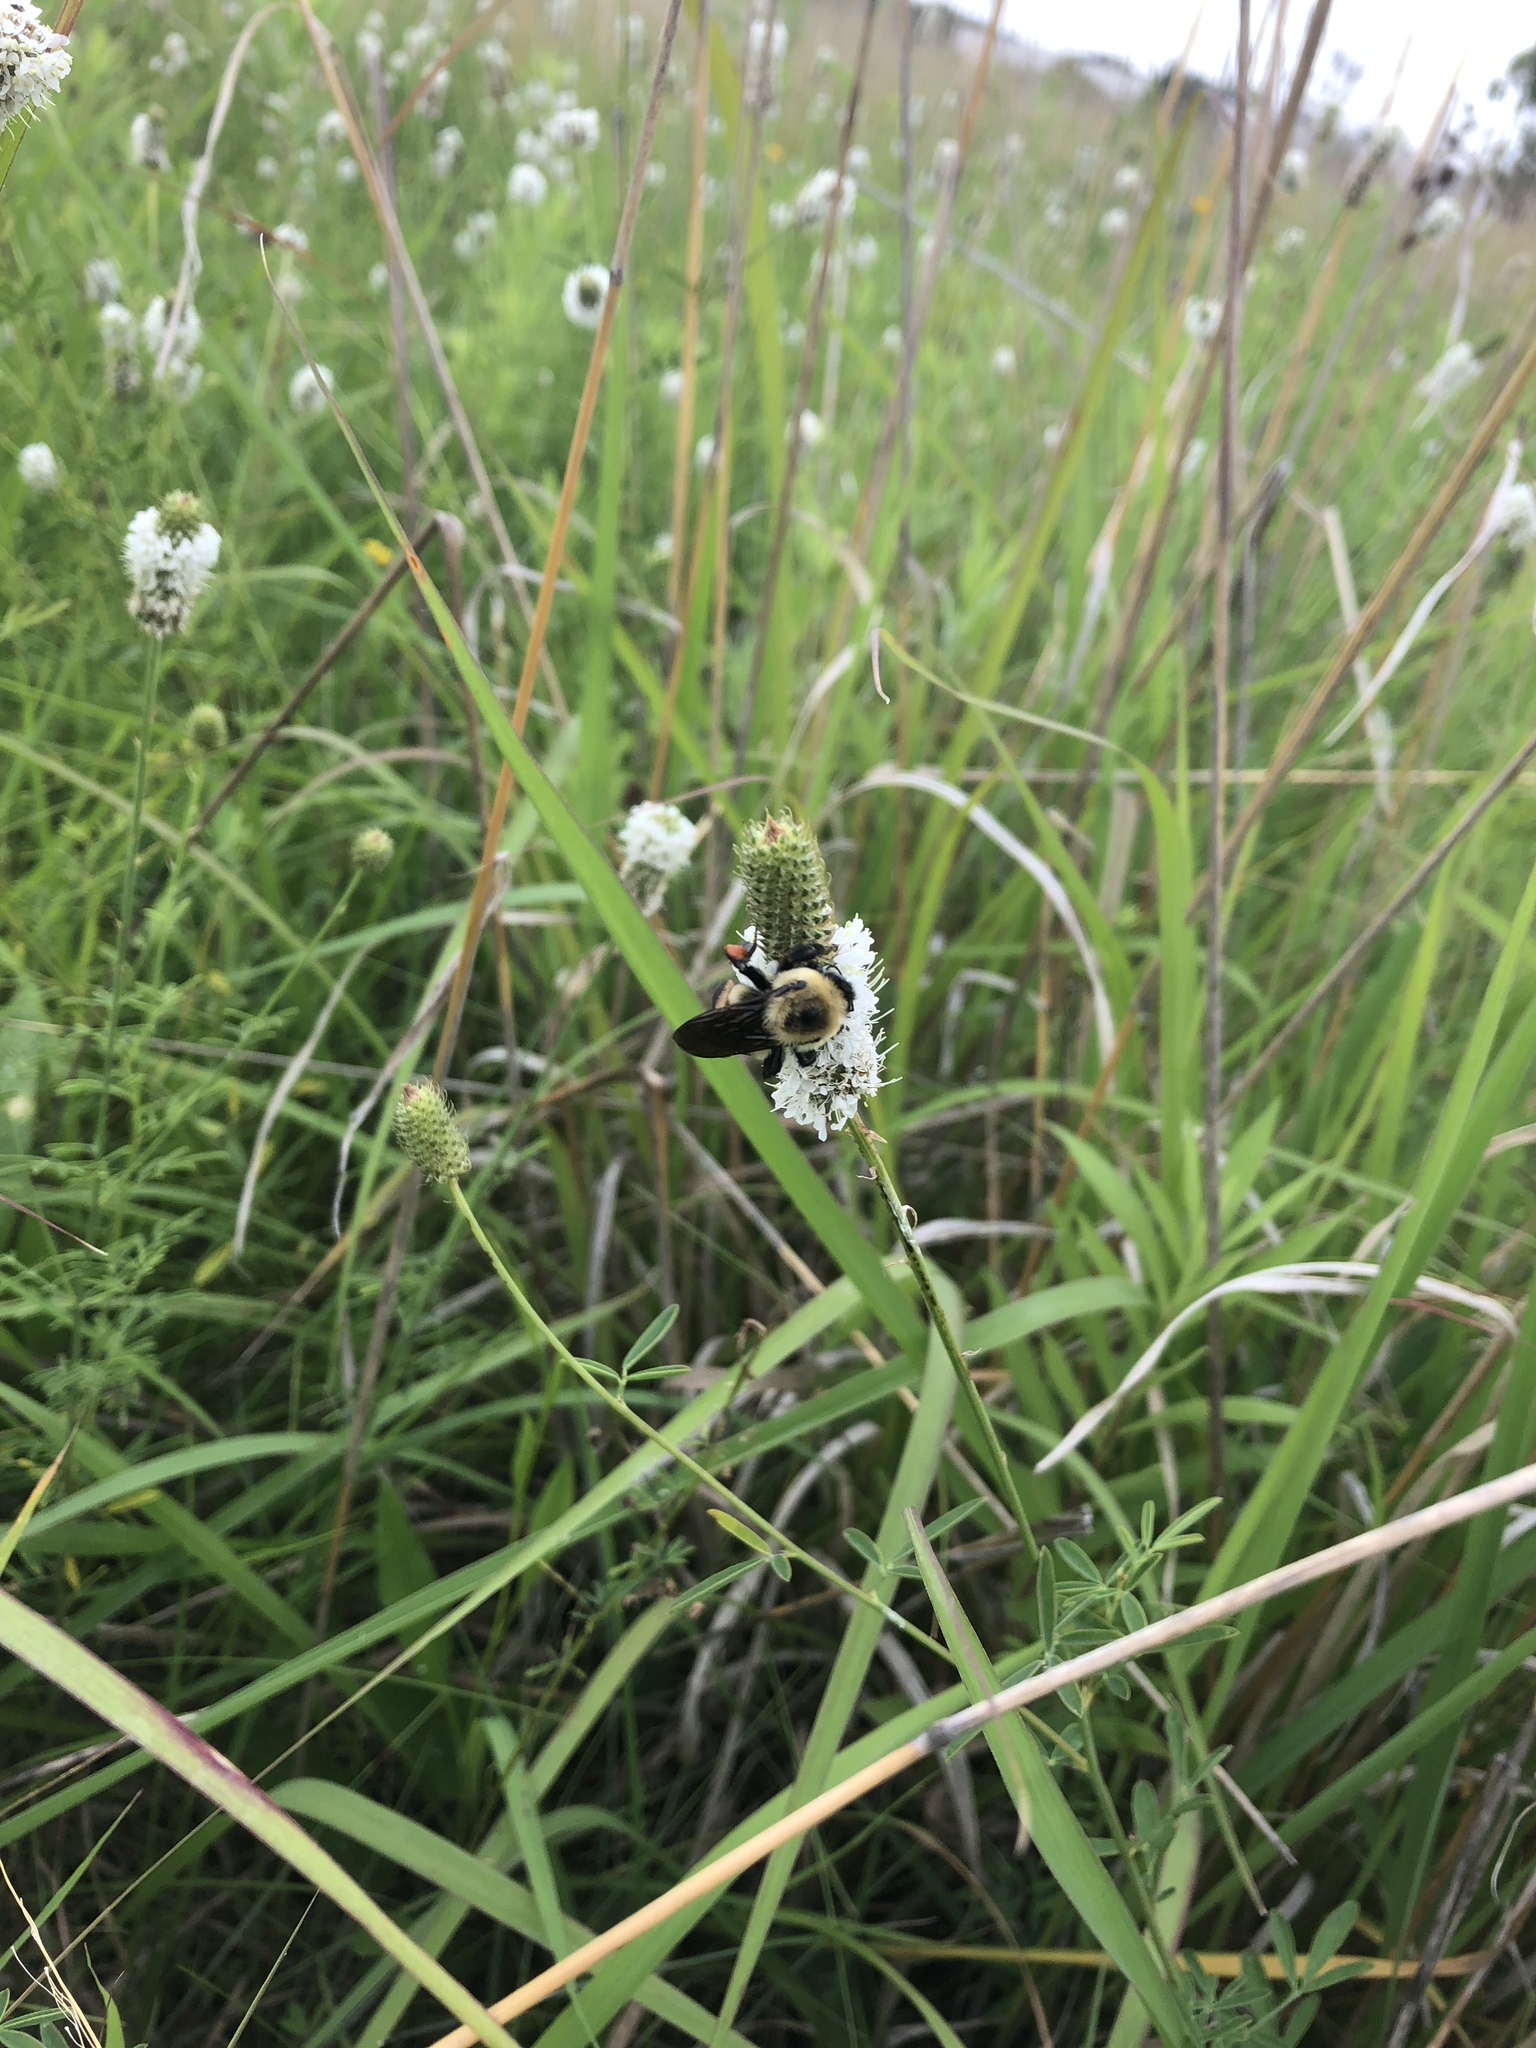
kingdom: Animalia
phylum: Arthropoda
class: Insecta
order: Hymenoptera
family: Apidae
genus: Bombus
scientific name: Bombus griseocollis
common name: Brown-belted bumble bee
